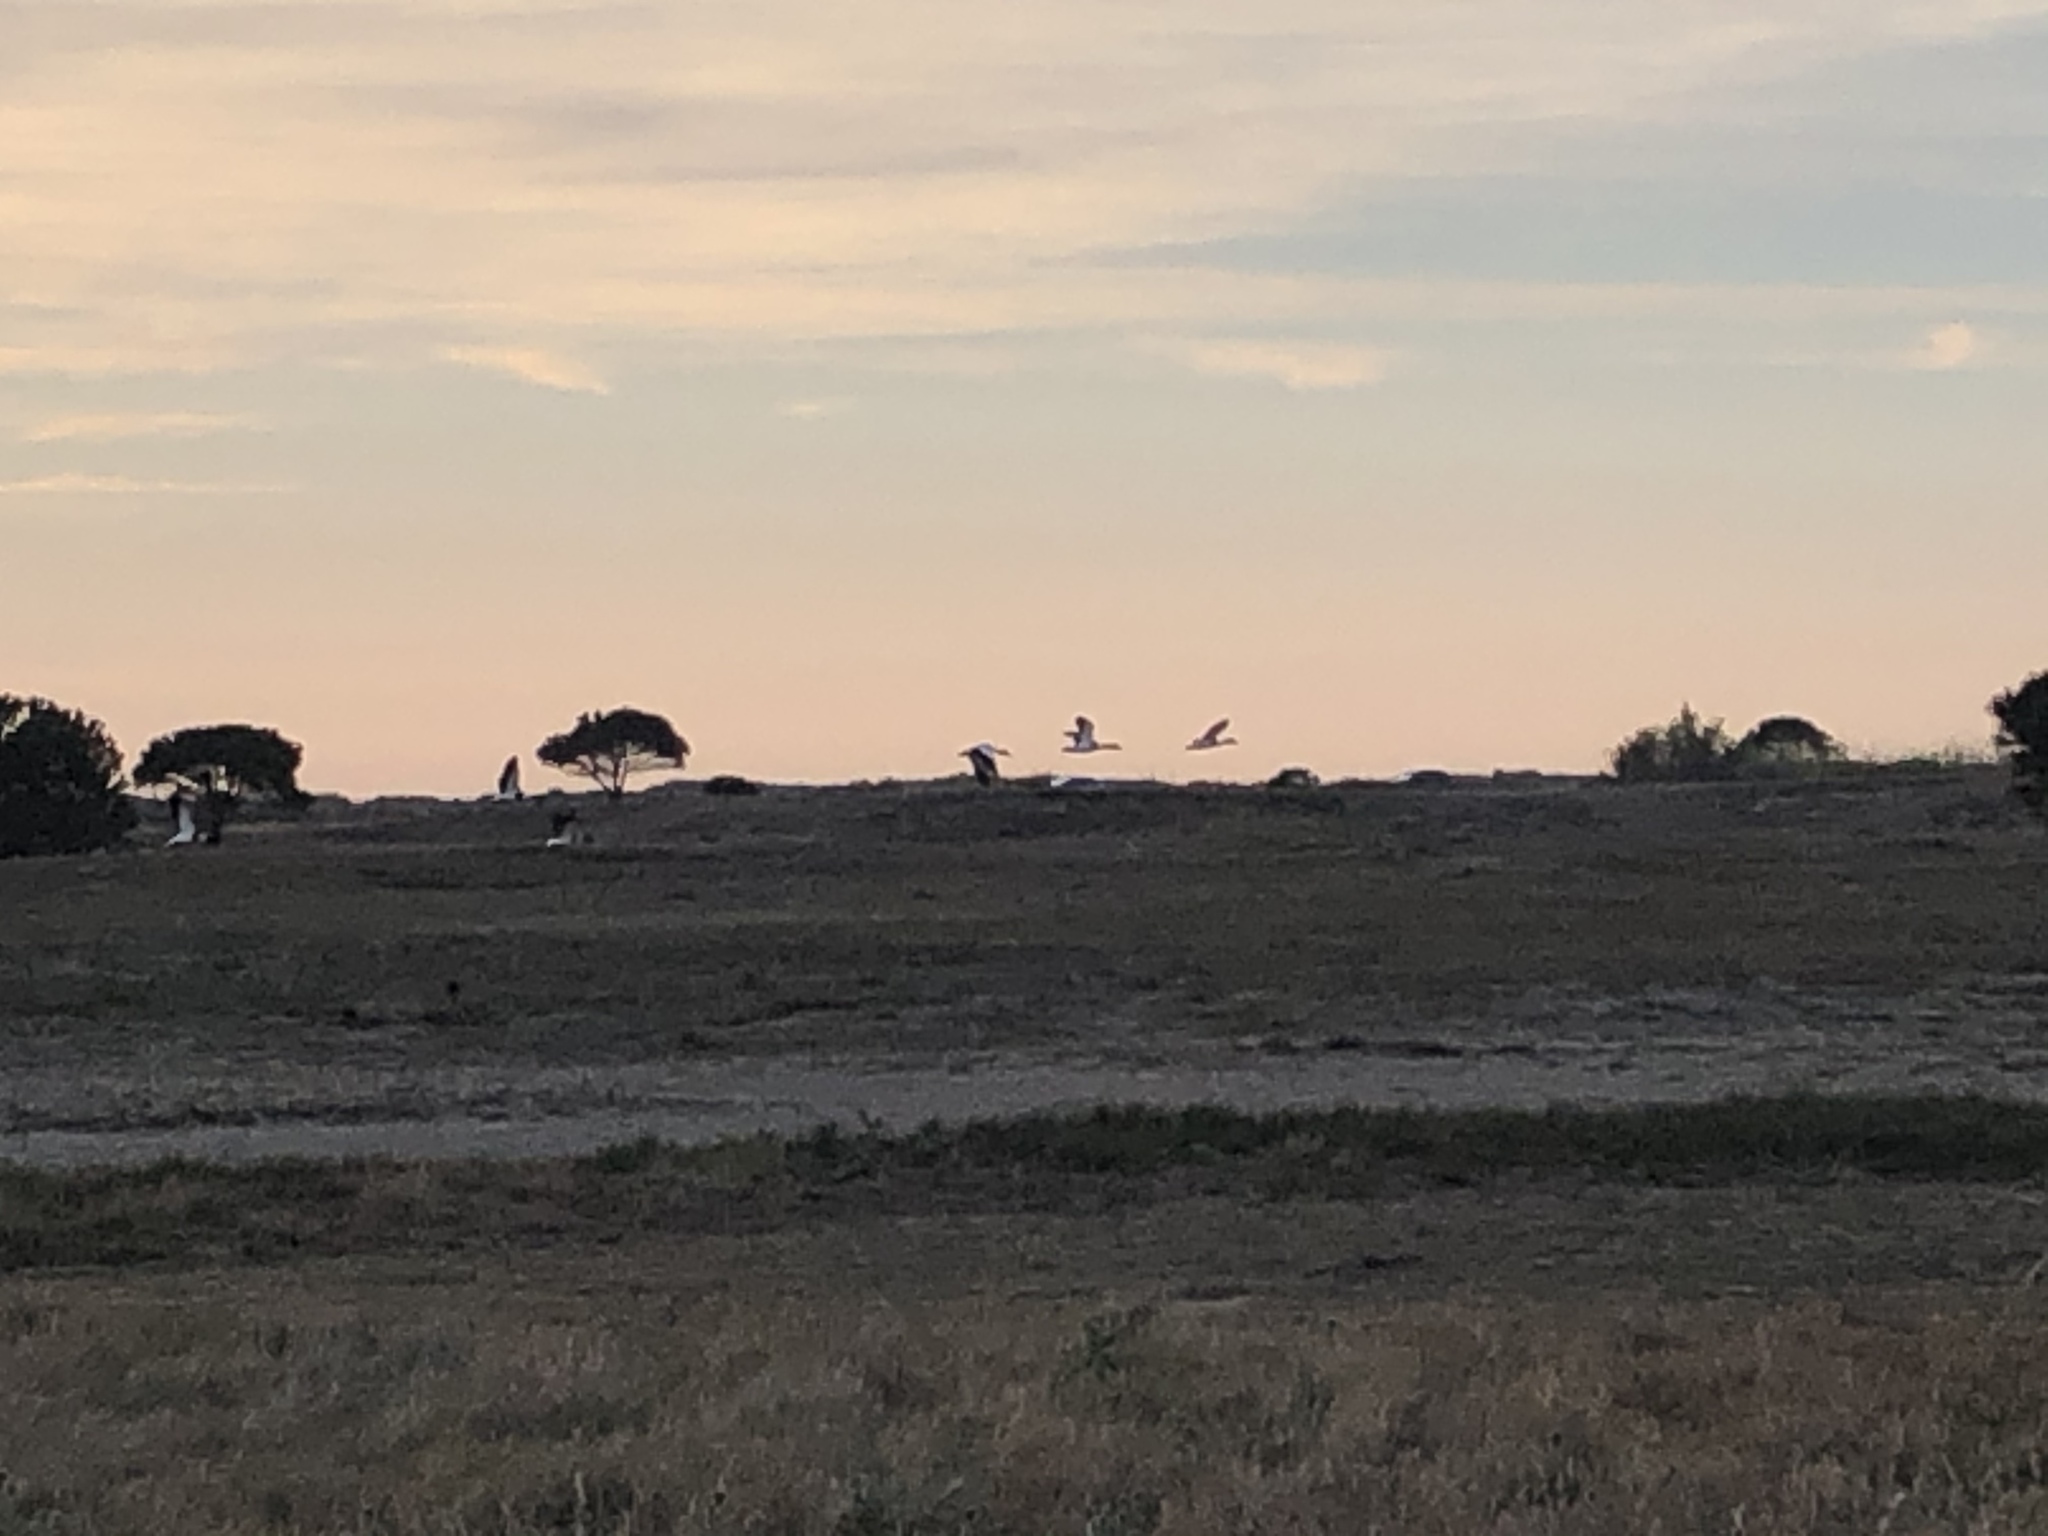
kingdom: Animalia
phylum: Chordata
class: Aves
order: Anseriformes
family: Anatidae
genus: Tadorna
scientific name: Tadorna tadorna
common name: Common shelduck
